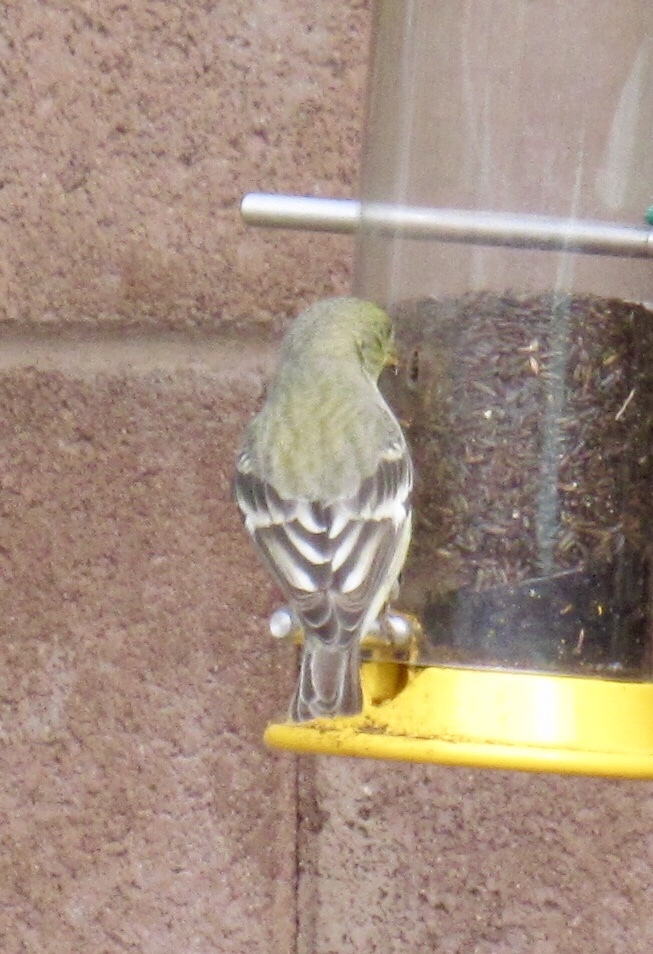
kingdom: Animalia
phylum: Chordata
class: Aves
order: Passeriformes
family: Fringillidae
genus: Spinus
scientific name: Spinus psaltria
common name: Lesser goldfinch
